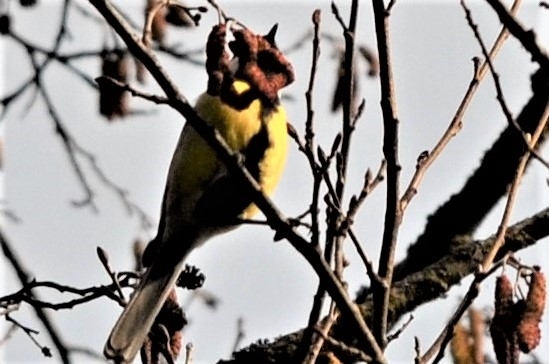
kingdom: Animalia
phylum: Chordata
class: Aves
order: Passeriformes
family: Paridae
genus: Parus
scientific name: Parus major
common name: Great tit
